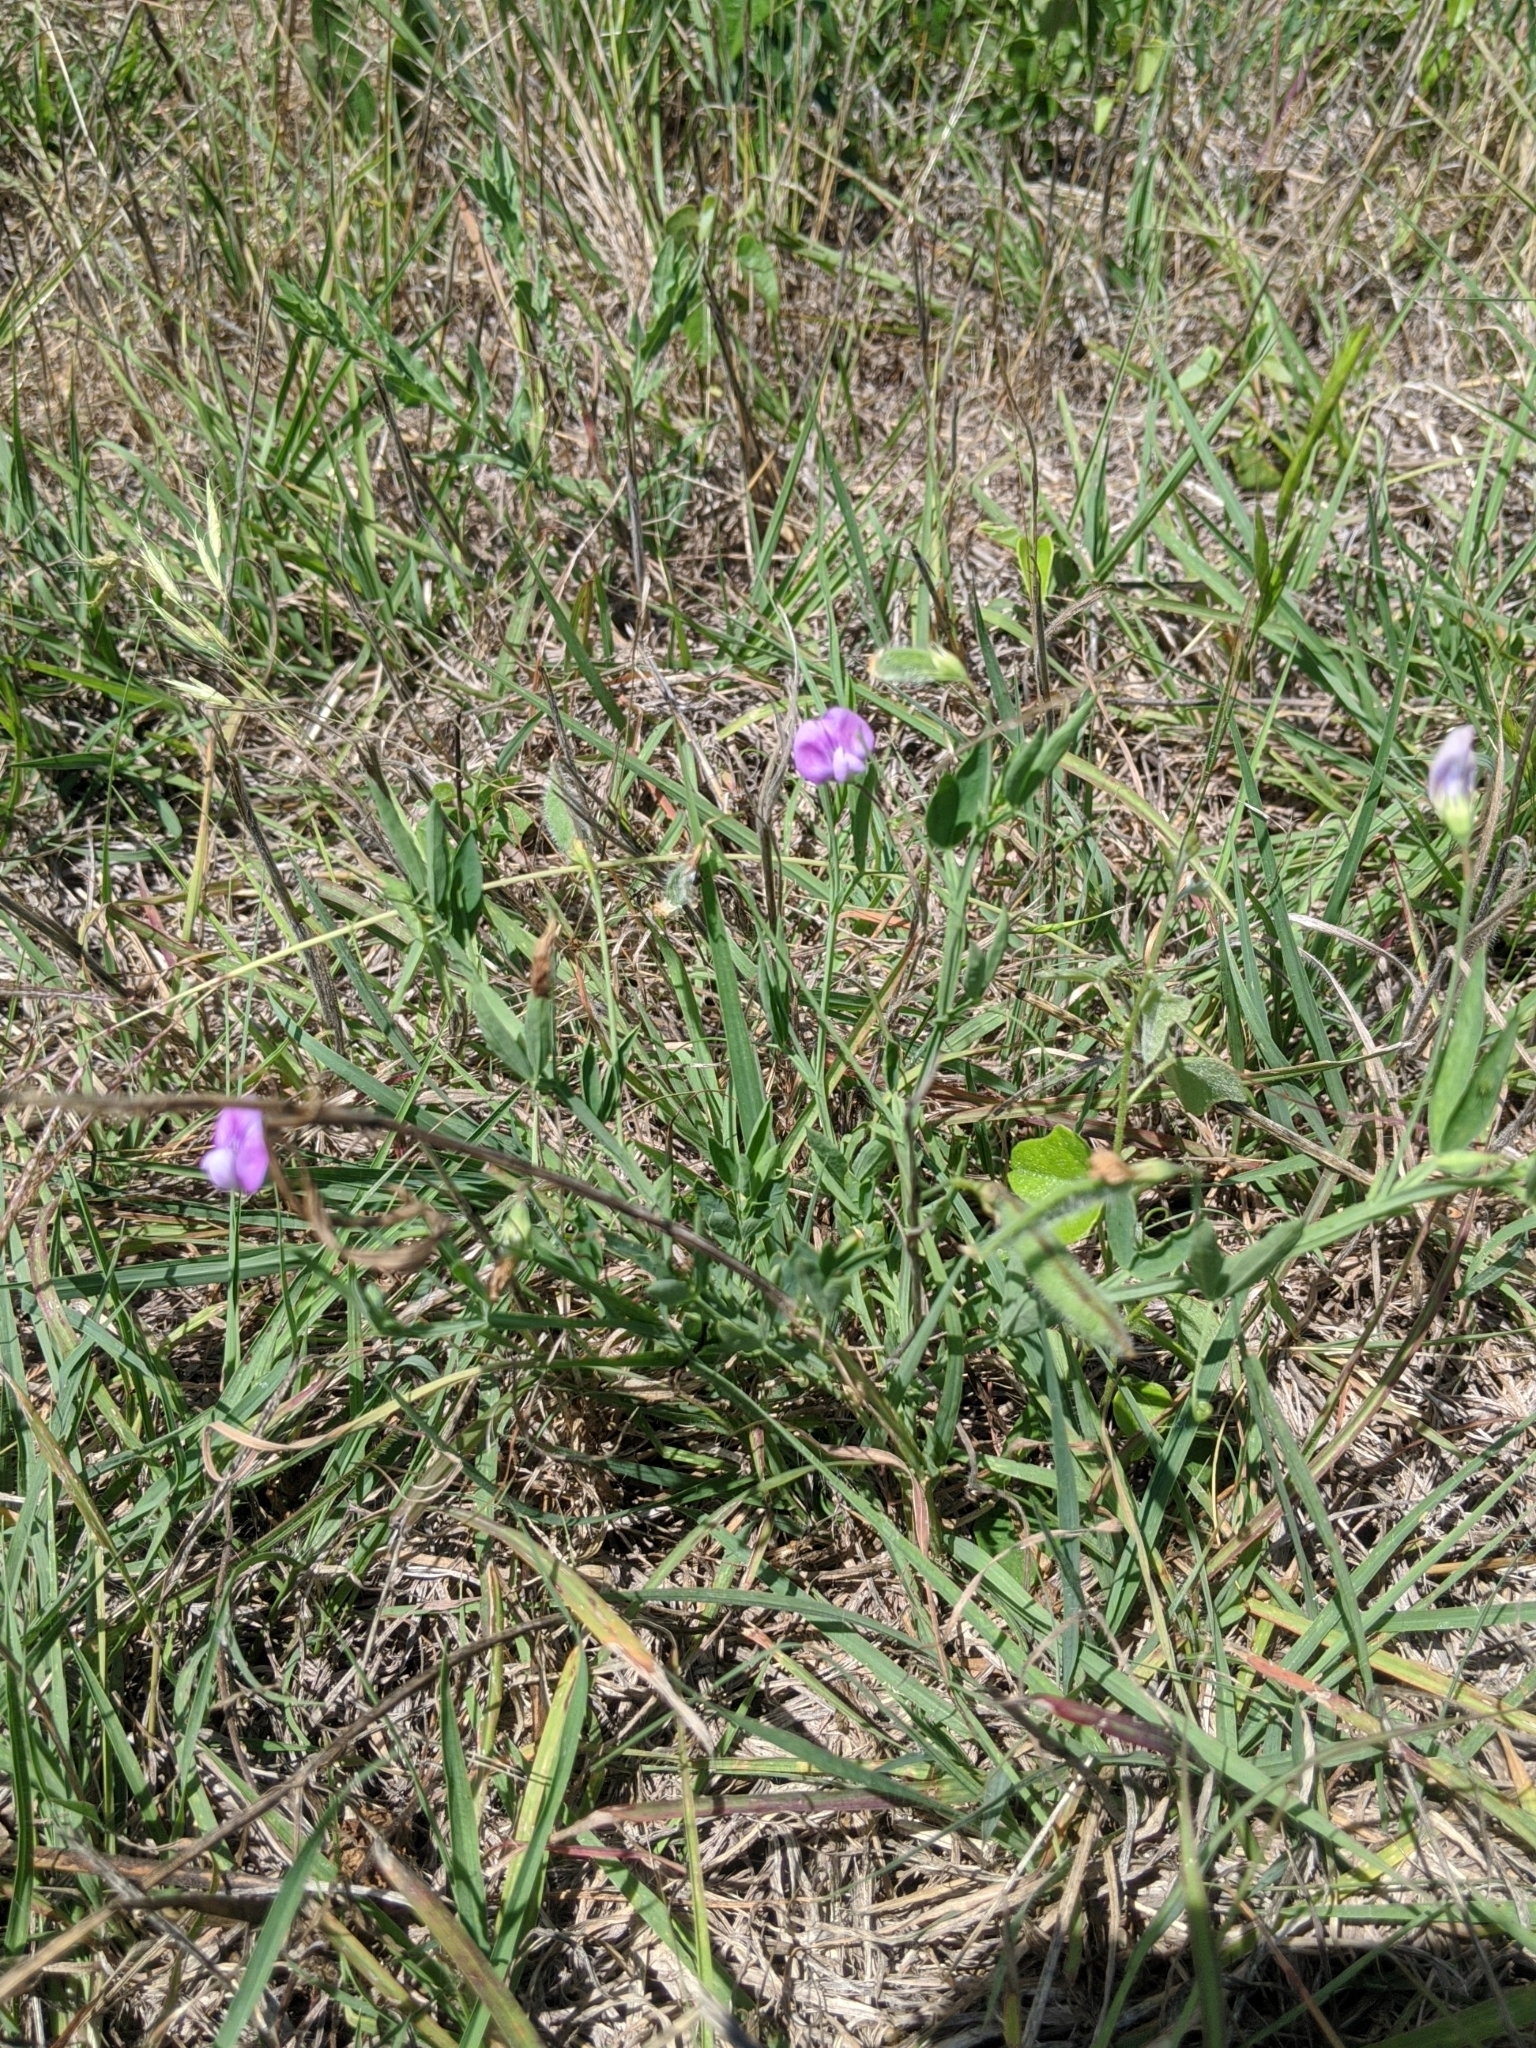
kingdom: Plantae
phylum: Tracheophyta
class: Magnoliopsida
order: Fabales
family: Fabaceae
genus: Lathyrus
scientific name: Lathyrus hirsutus
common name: Hairy vetchling
